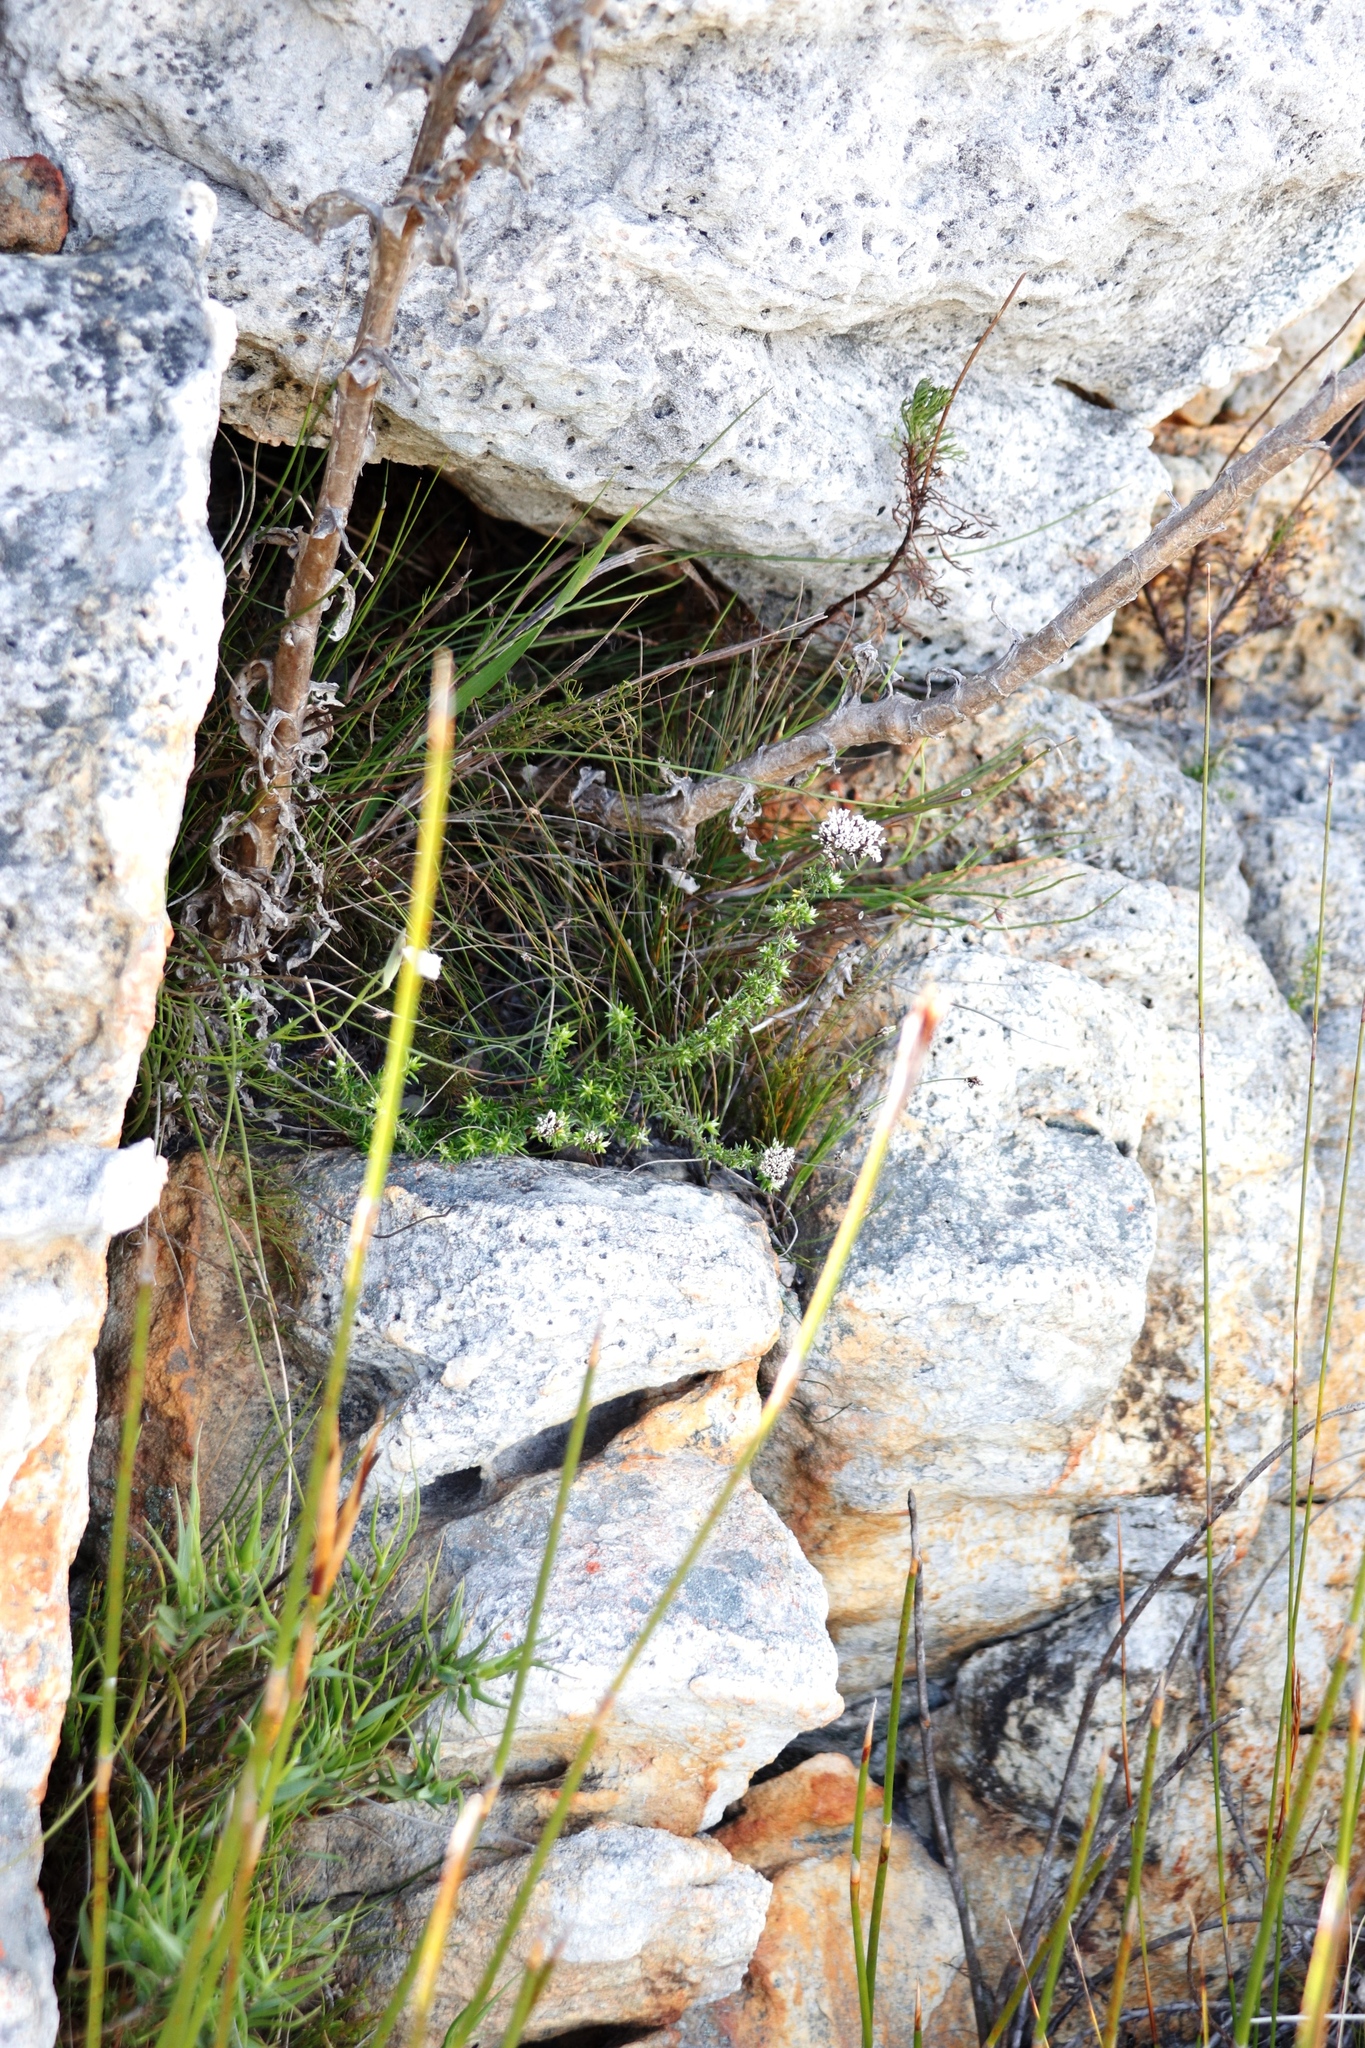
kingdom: Plantae
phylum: Tracheophyta
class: Magnoliopsida
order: Asterales
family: Asteraceae
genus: Metalasia
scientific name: Metalasia densa
